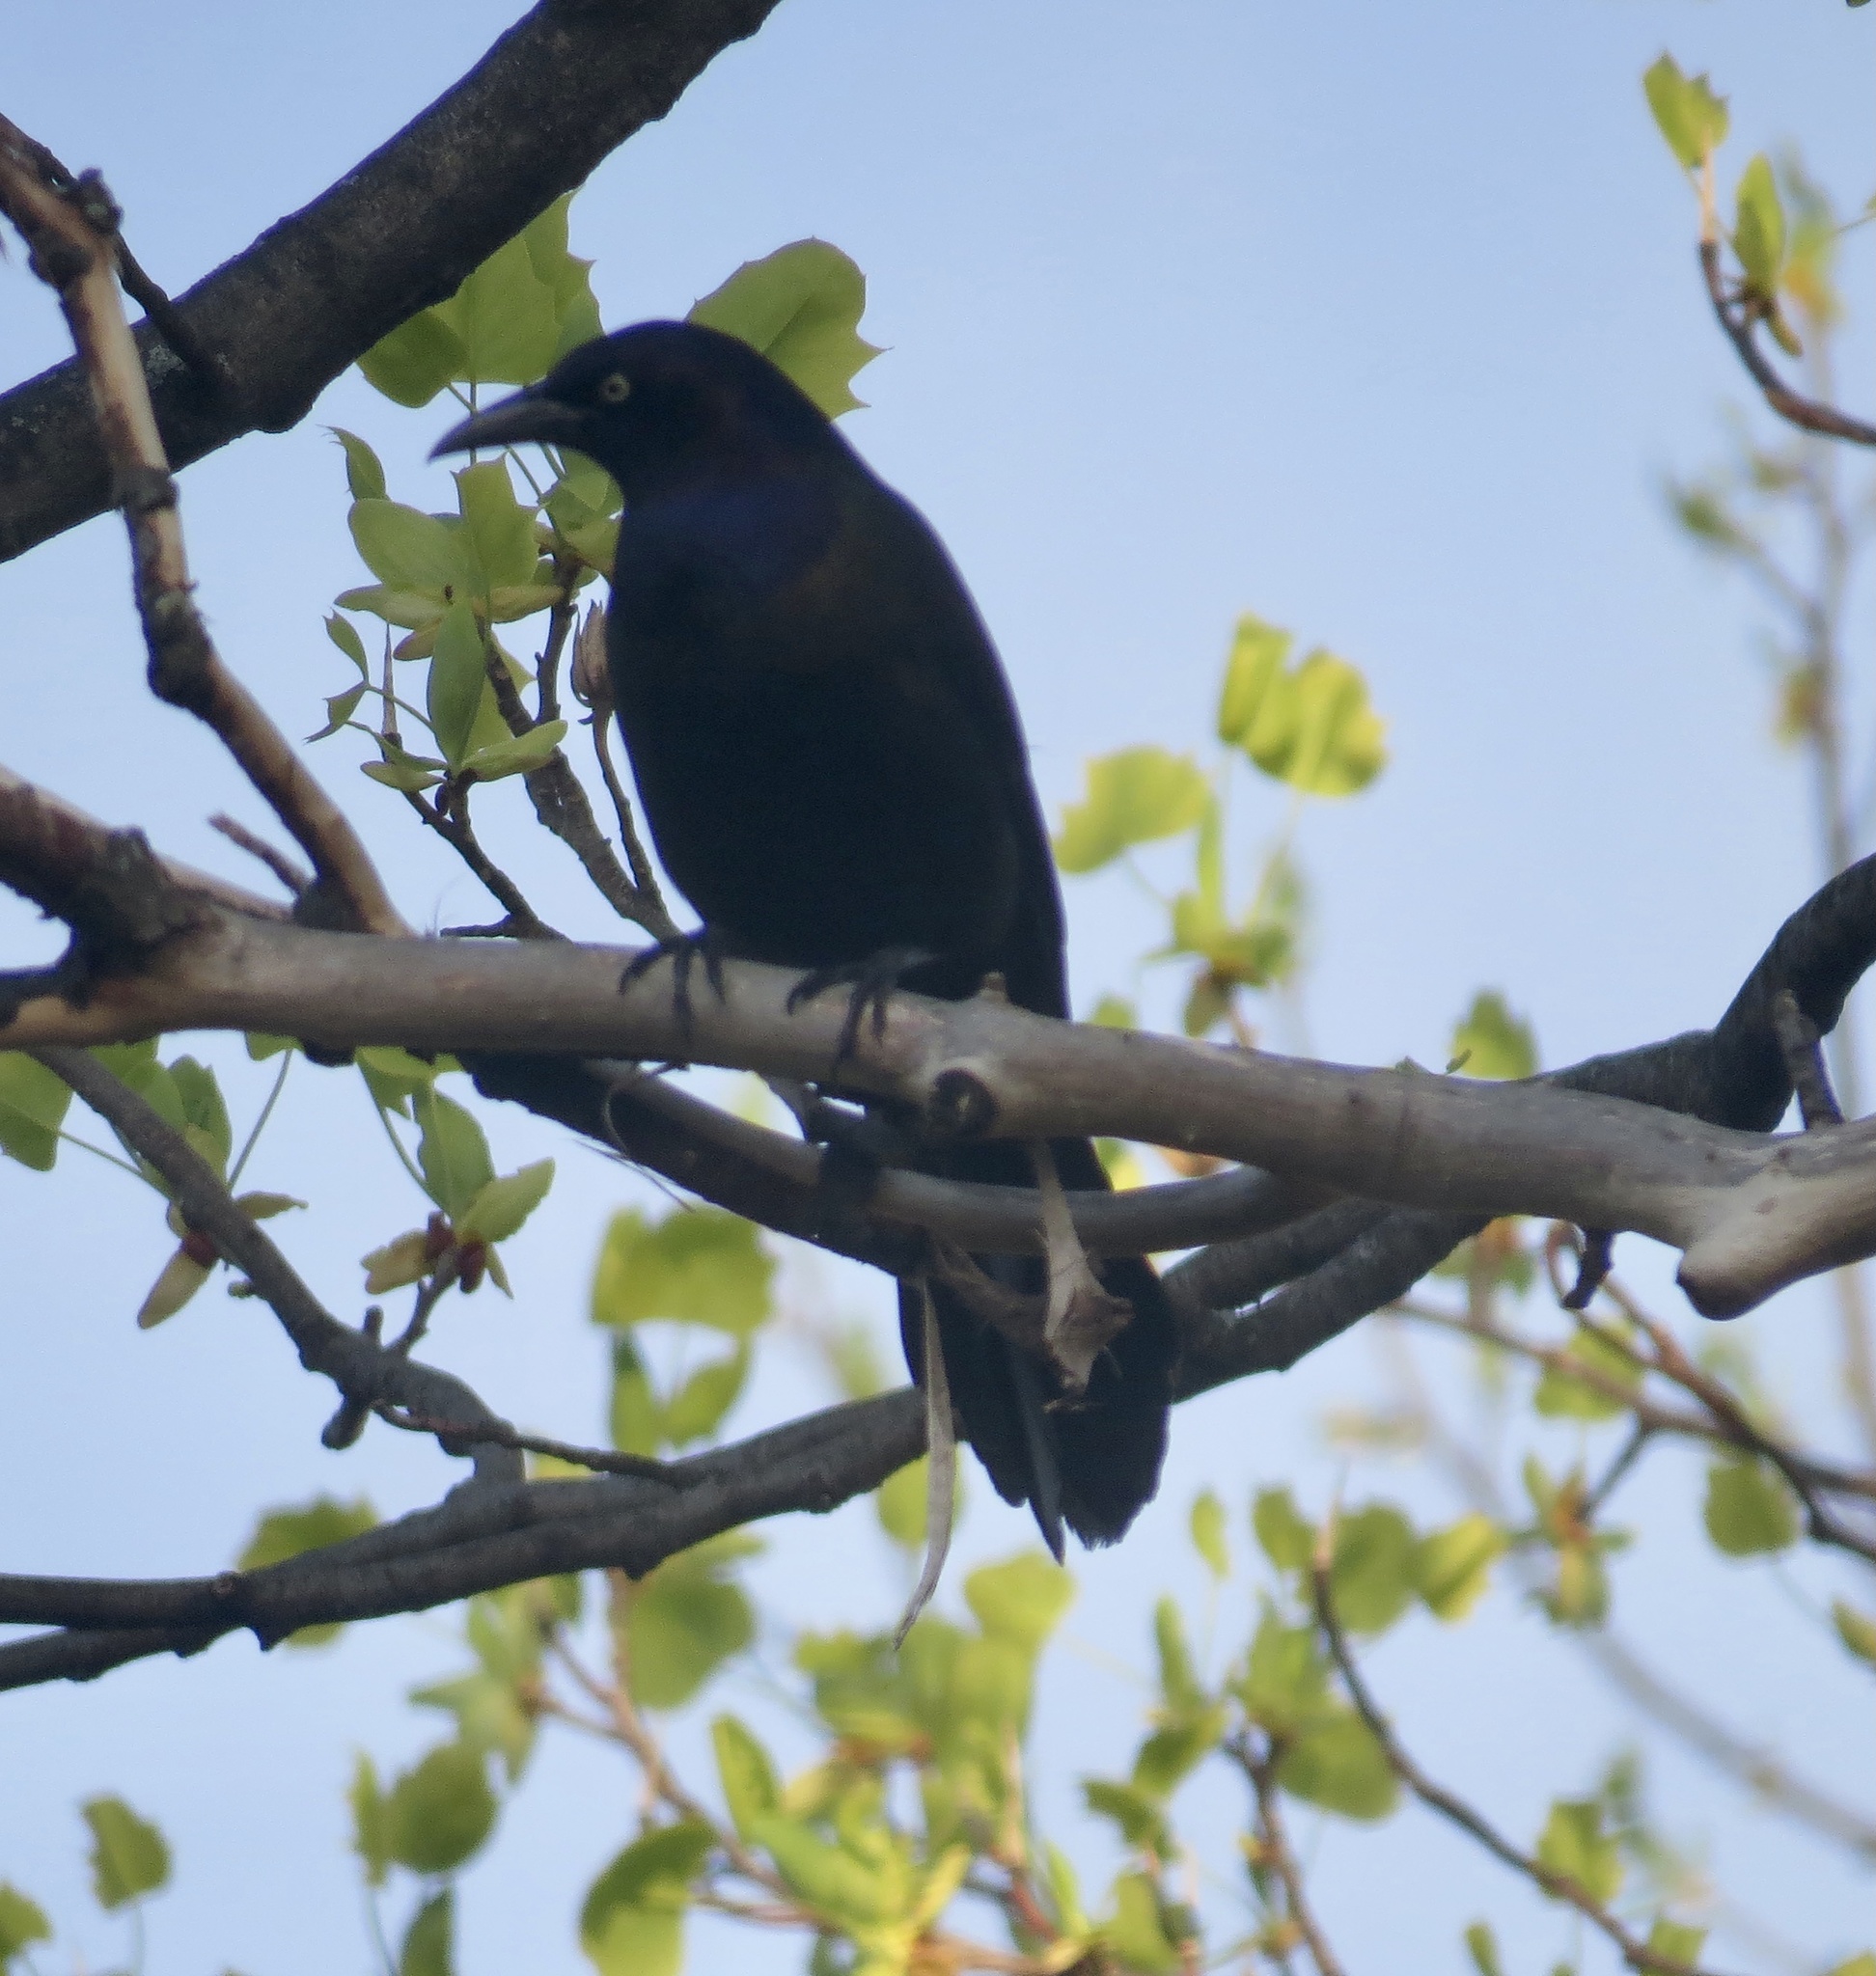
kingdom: Animalia
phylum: Chordata
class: Aves
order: Passeriformes
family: Icteridae
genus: Quiscalus
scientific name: Quiscalus quiscula
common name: Common grackle
